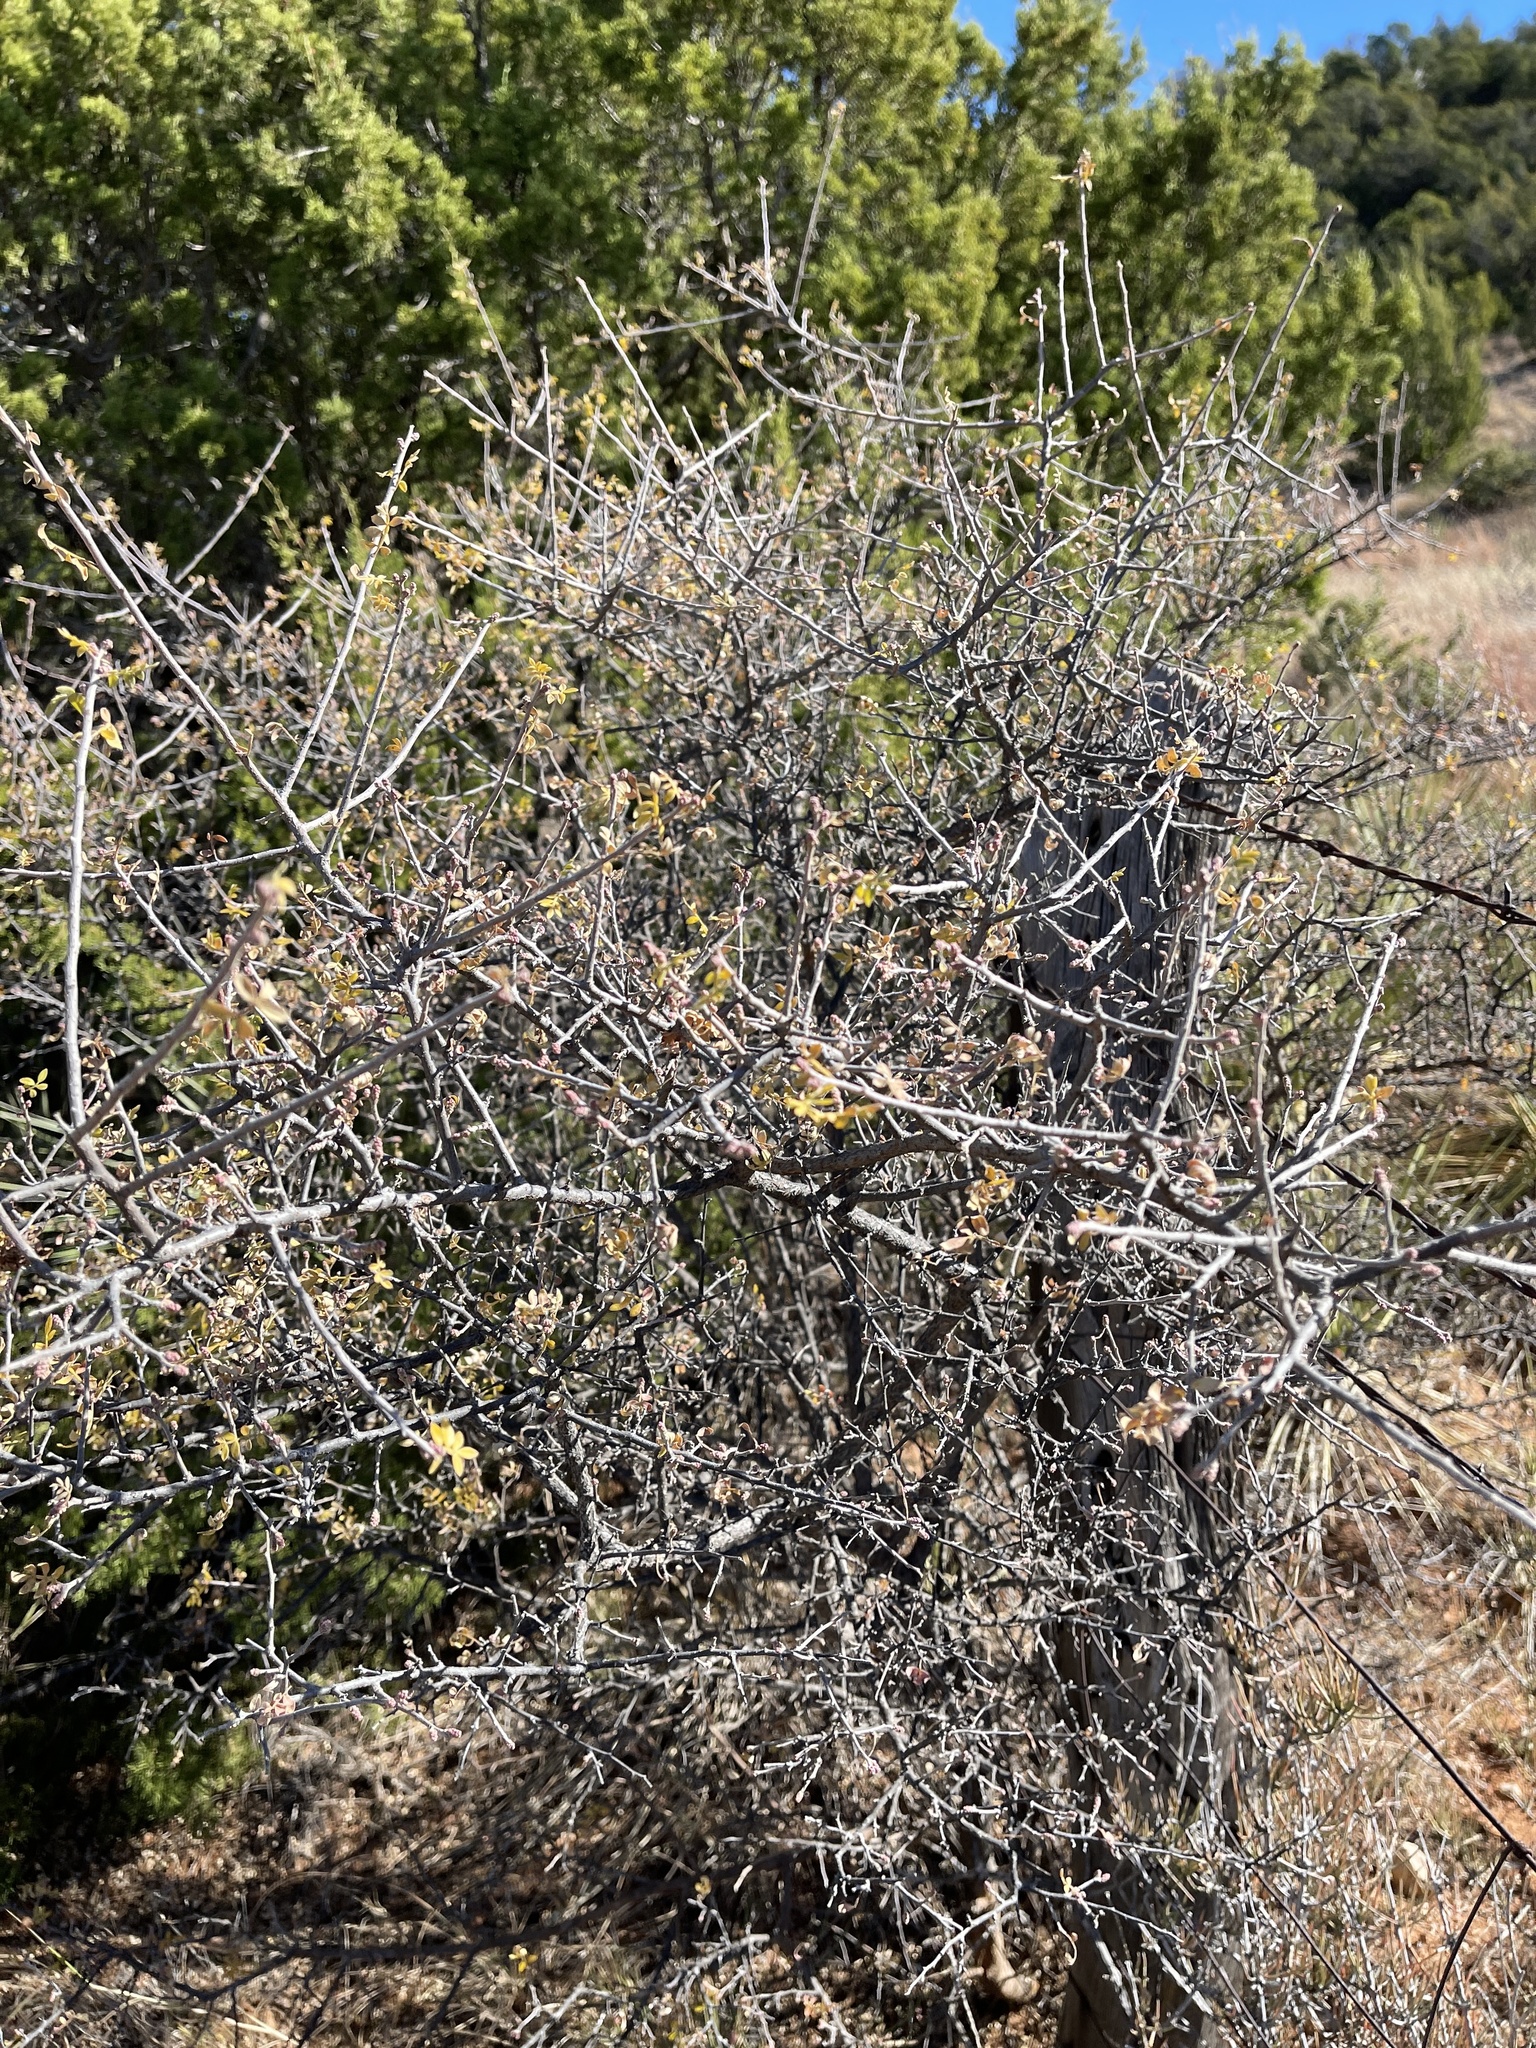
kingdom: Plantae
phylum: Tracheophyta
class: Magnoliopsida
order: Sapindales
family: Anacardiaceae
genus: Rhus
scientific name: Rhus microphylla
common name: Desert sumac
